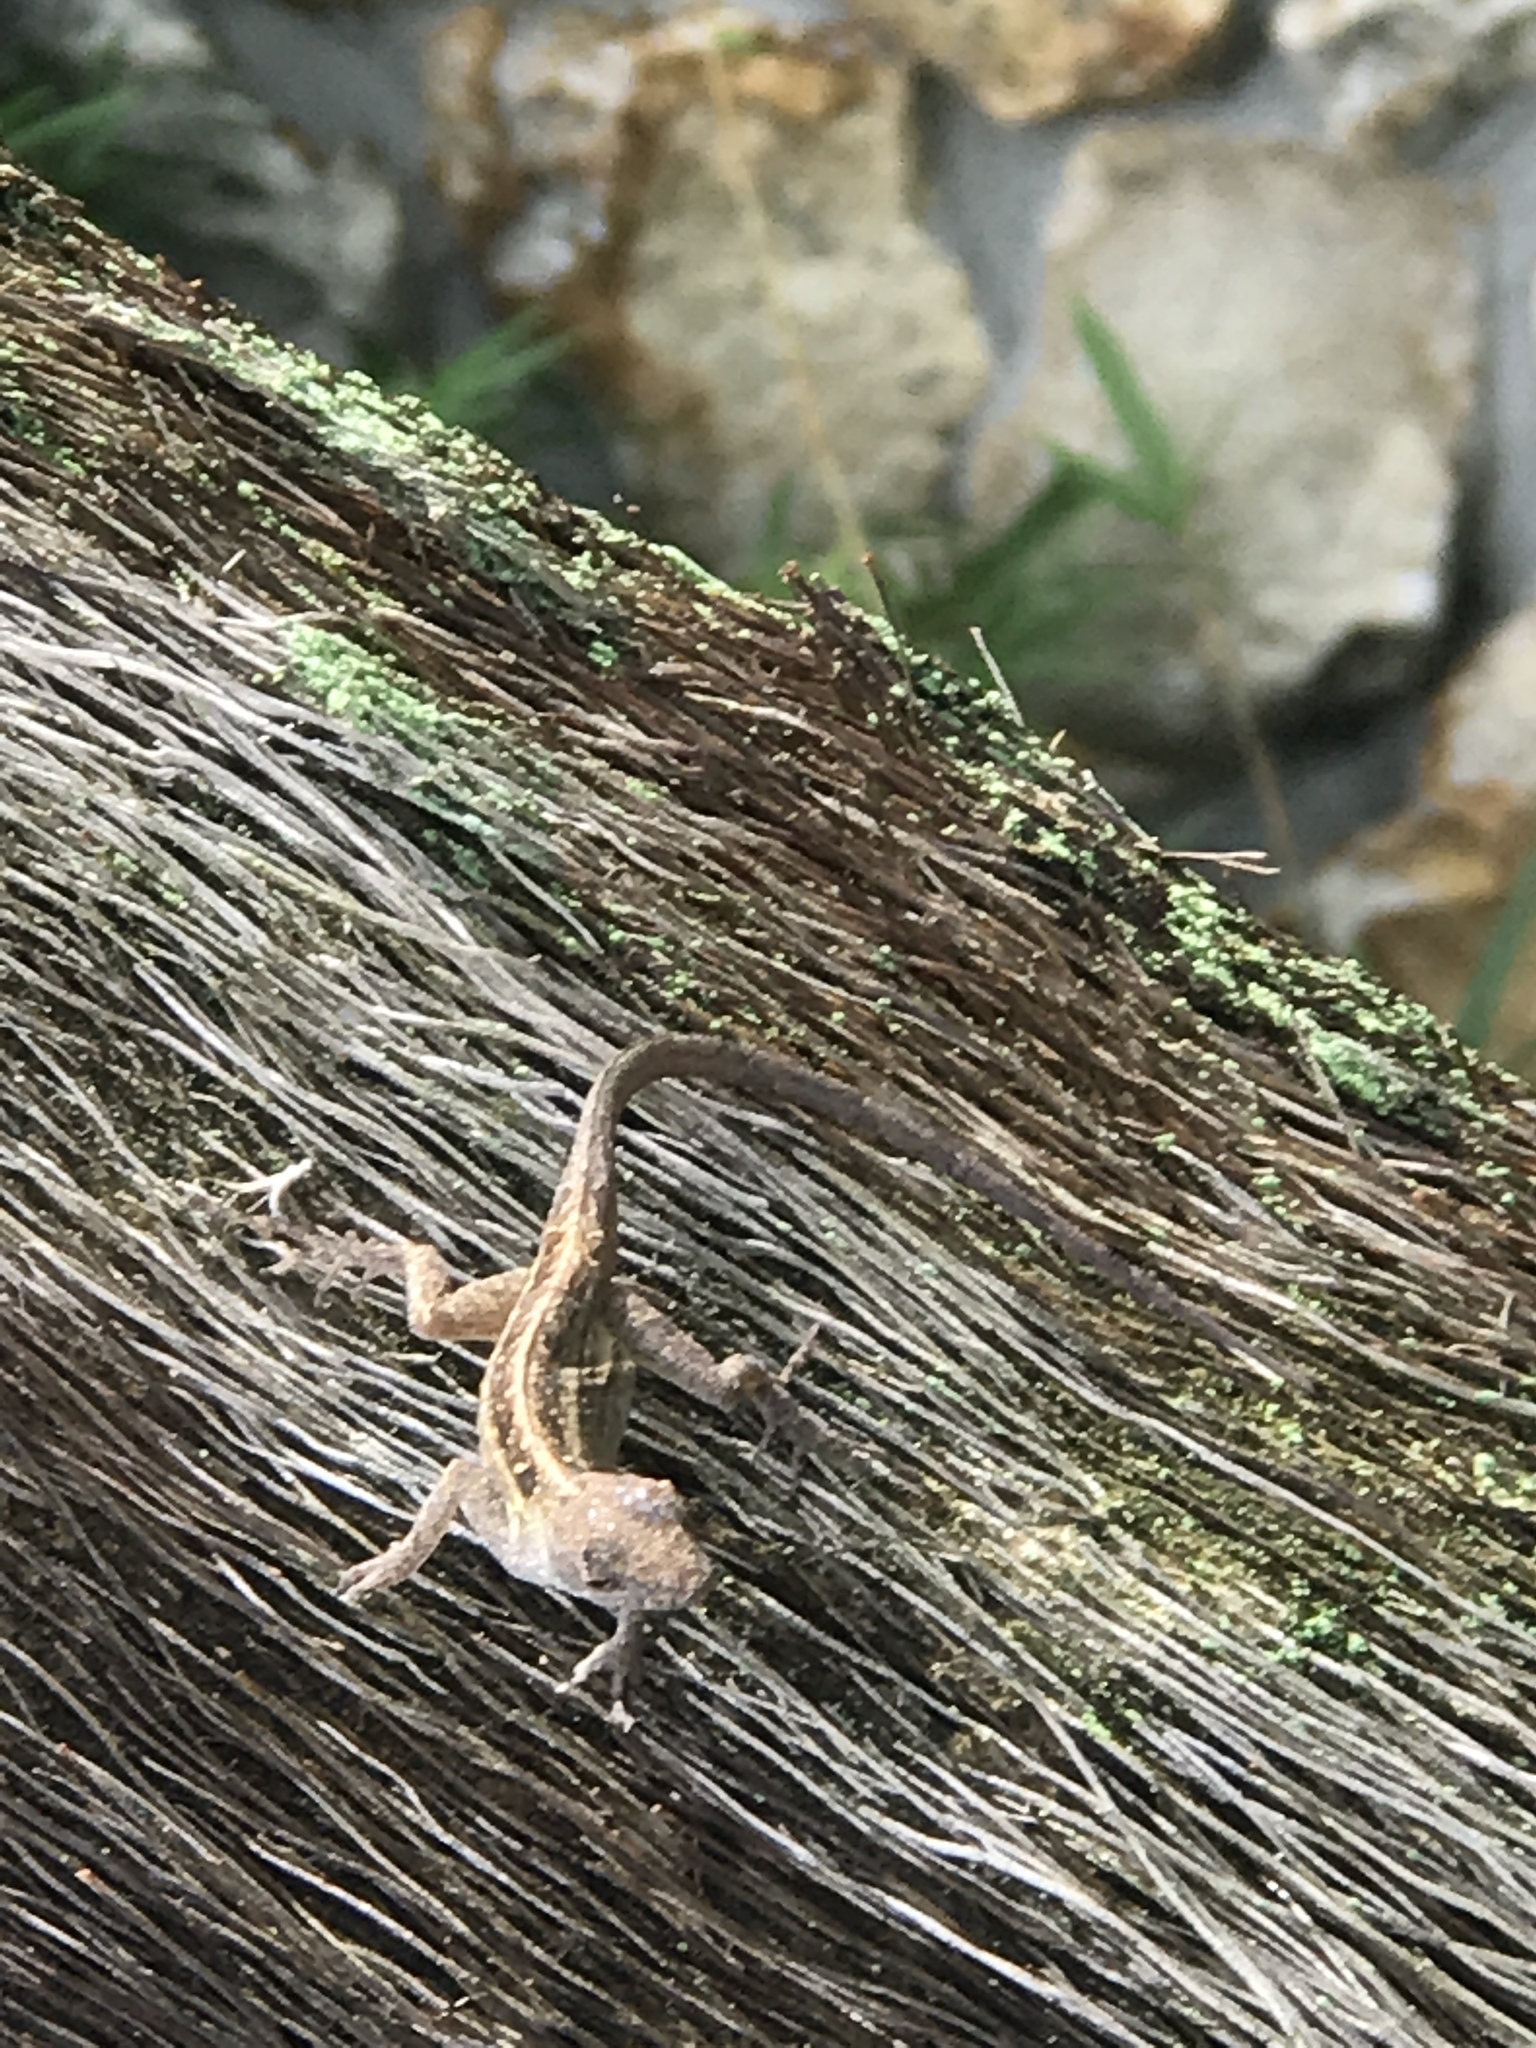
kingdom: Animalia
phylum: Chordata
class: Squamata
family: Dactyloidae
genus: Anolis
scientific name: Anolis sagrei
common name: Brown anole
